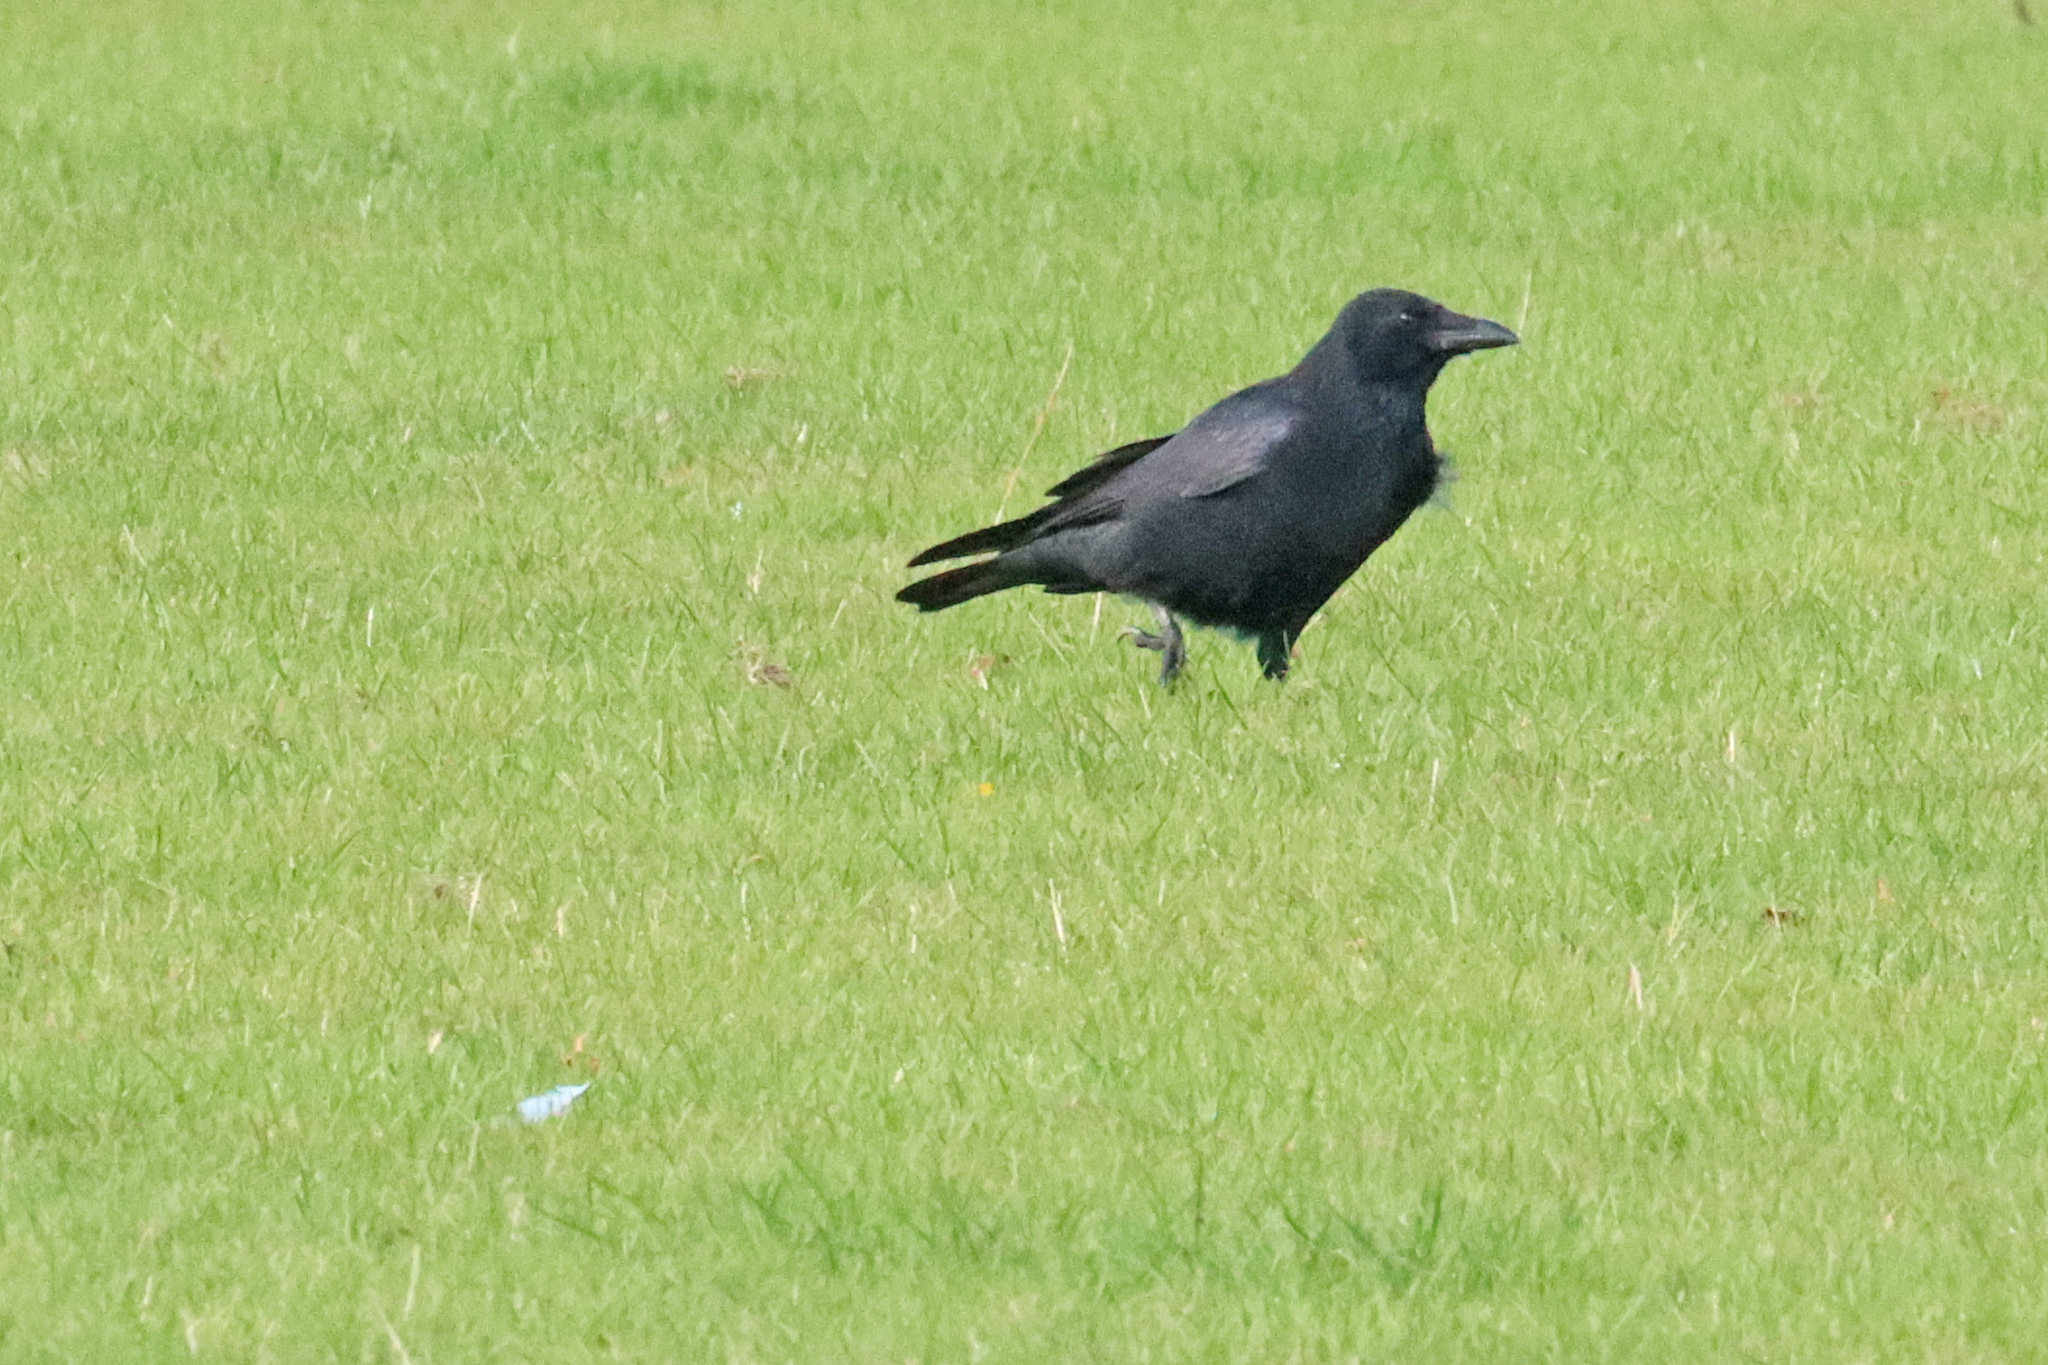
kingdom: Animalia
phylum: Chordata
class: Aves
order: Passeriformes
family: Corvidae
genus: Corvus
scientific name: Corvus corone
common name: Carrion crow
